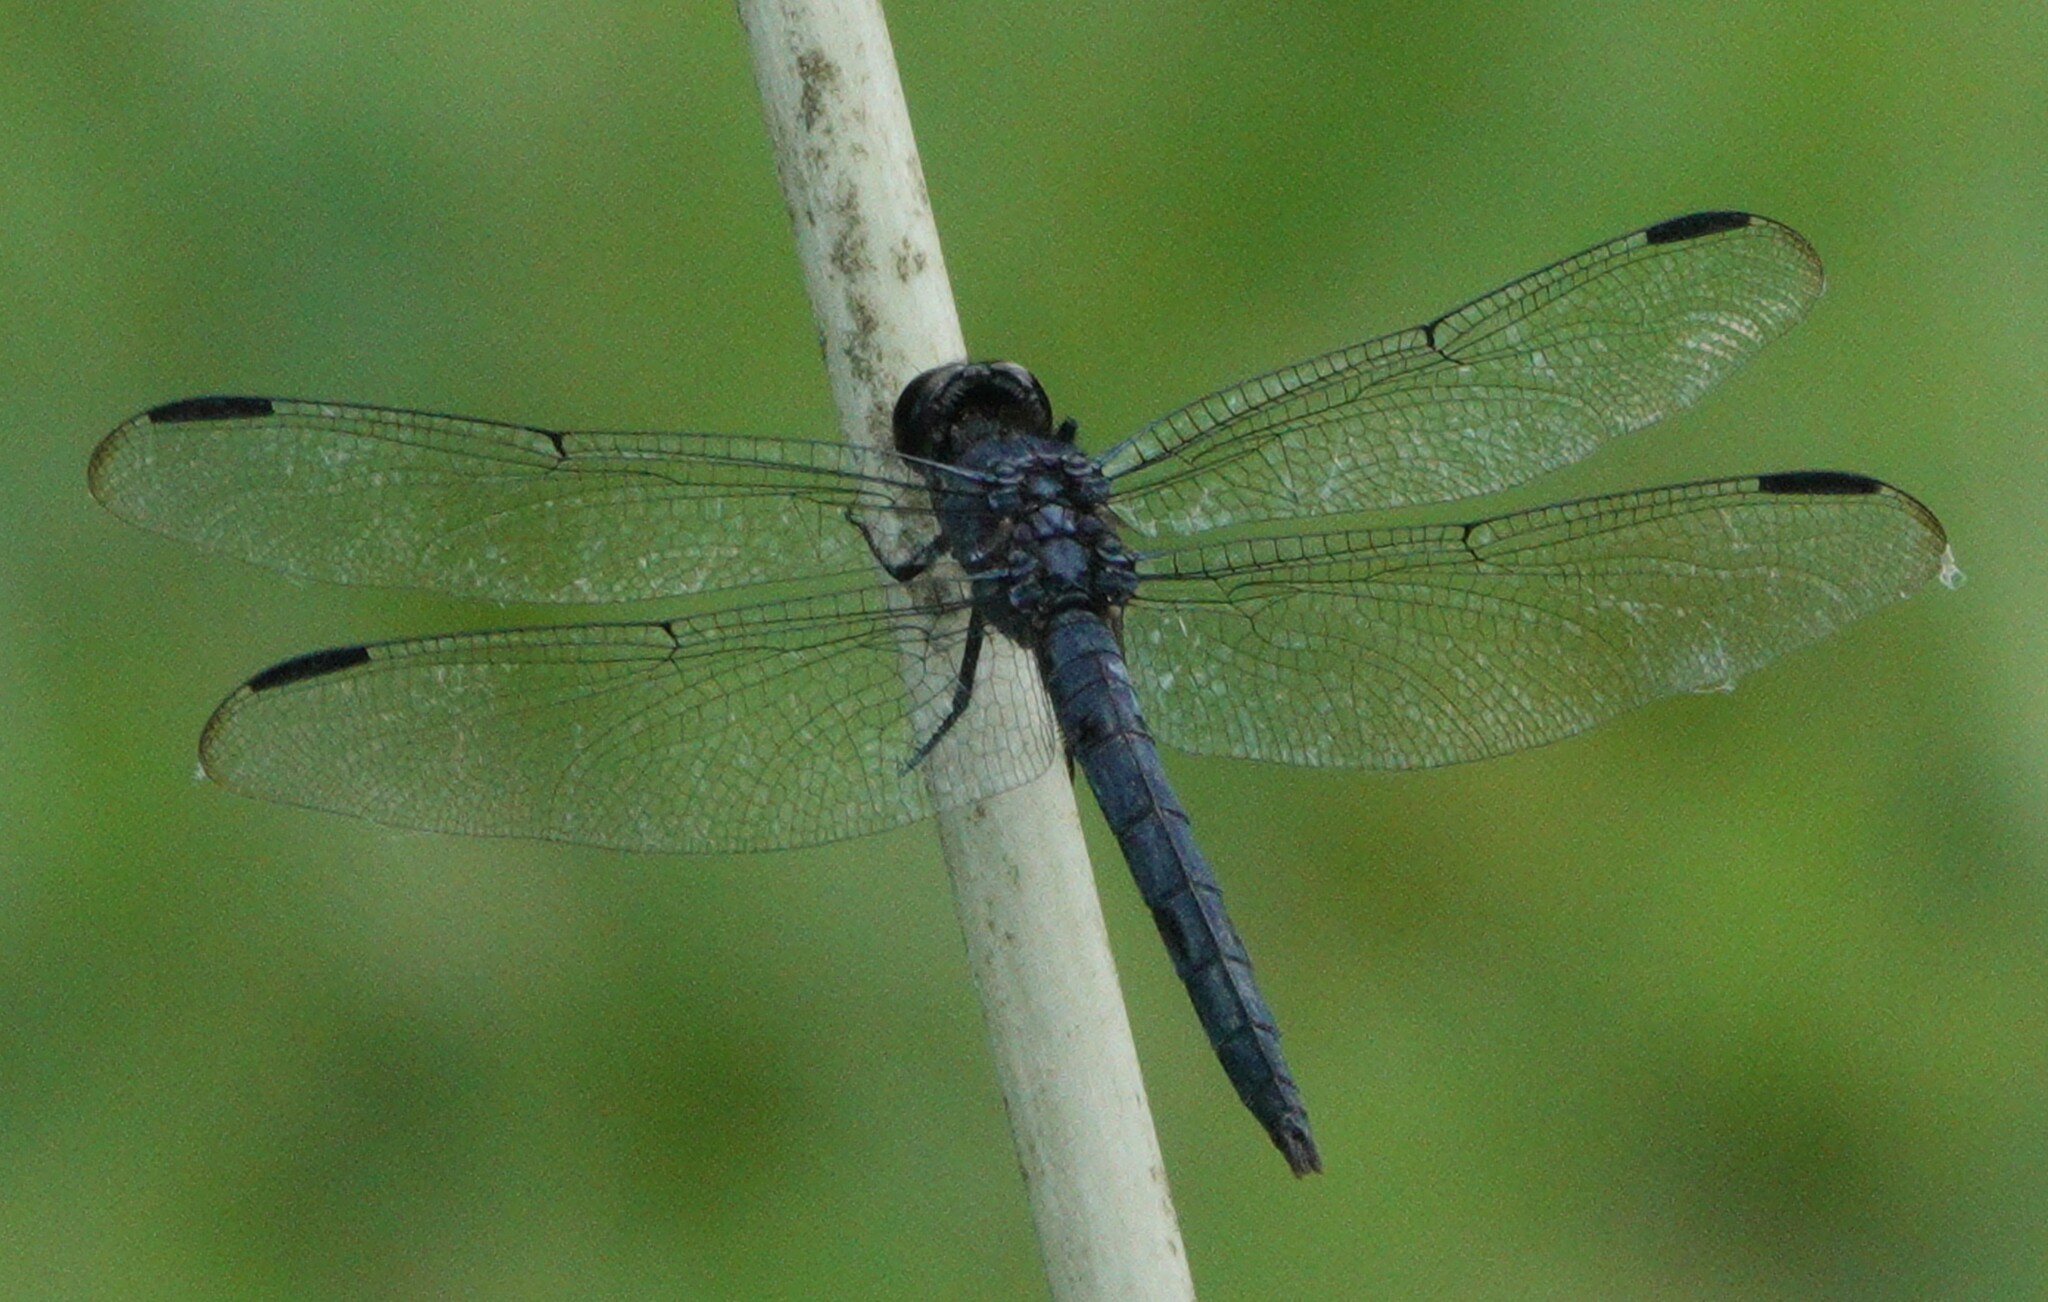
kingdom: Animalia
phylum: Arthropoda
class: Insecta
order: Odonata
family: Libellulidae
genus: Libellula
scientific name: Libellula incesta
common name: Slaty skimmer
